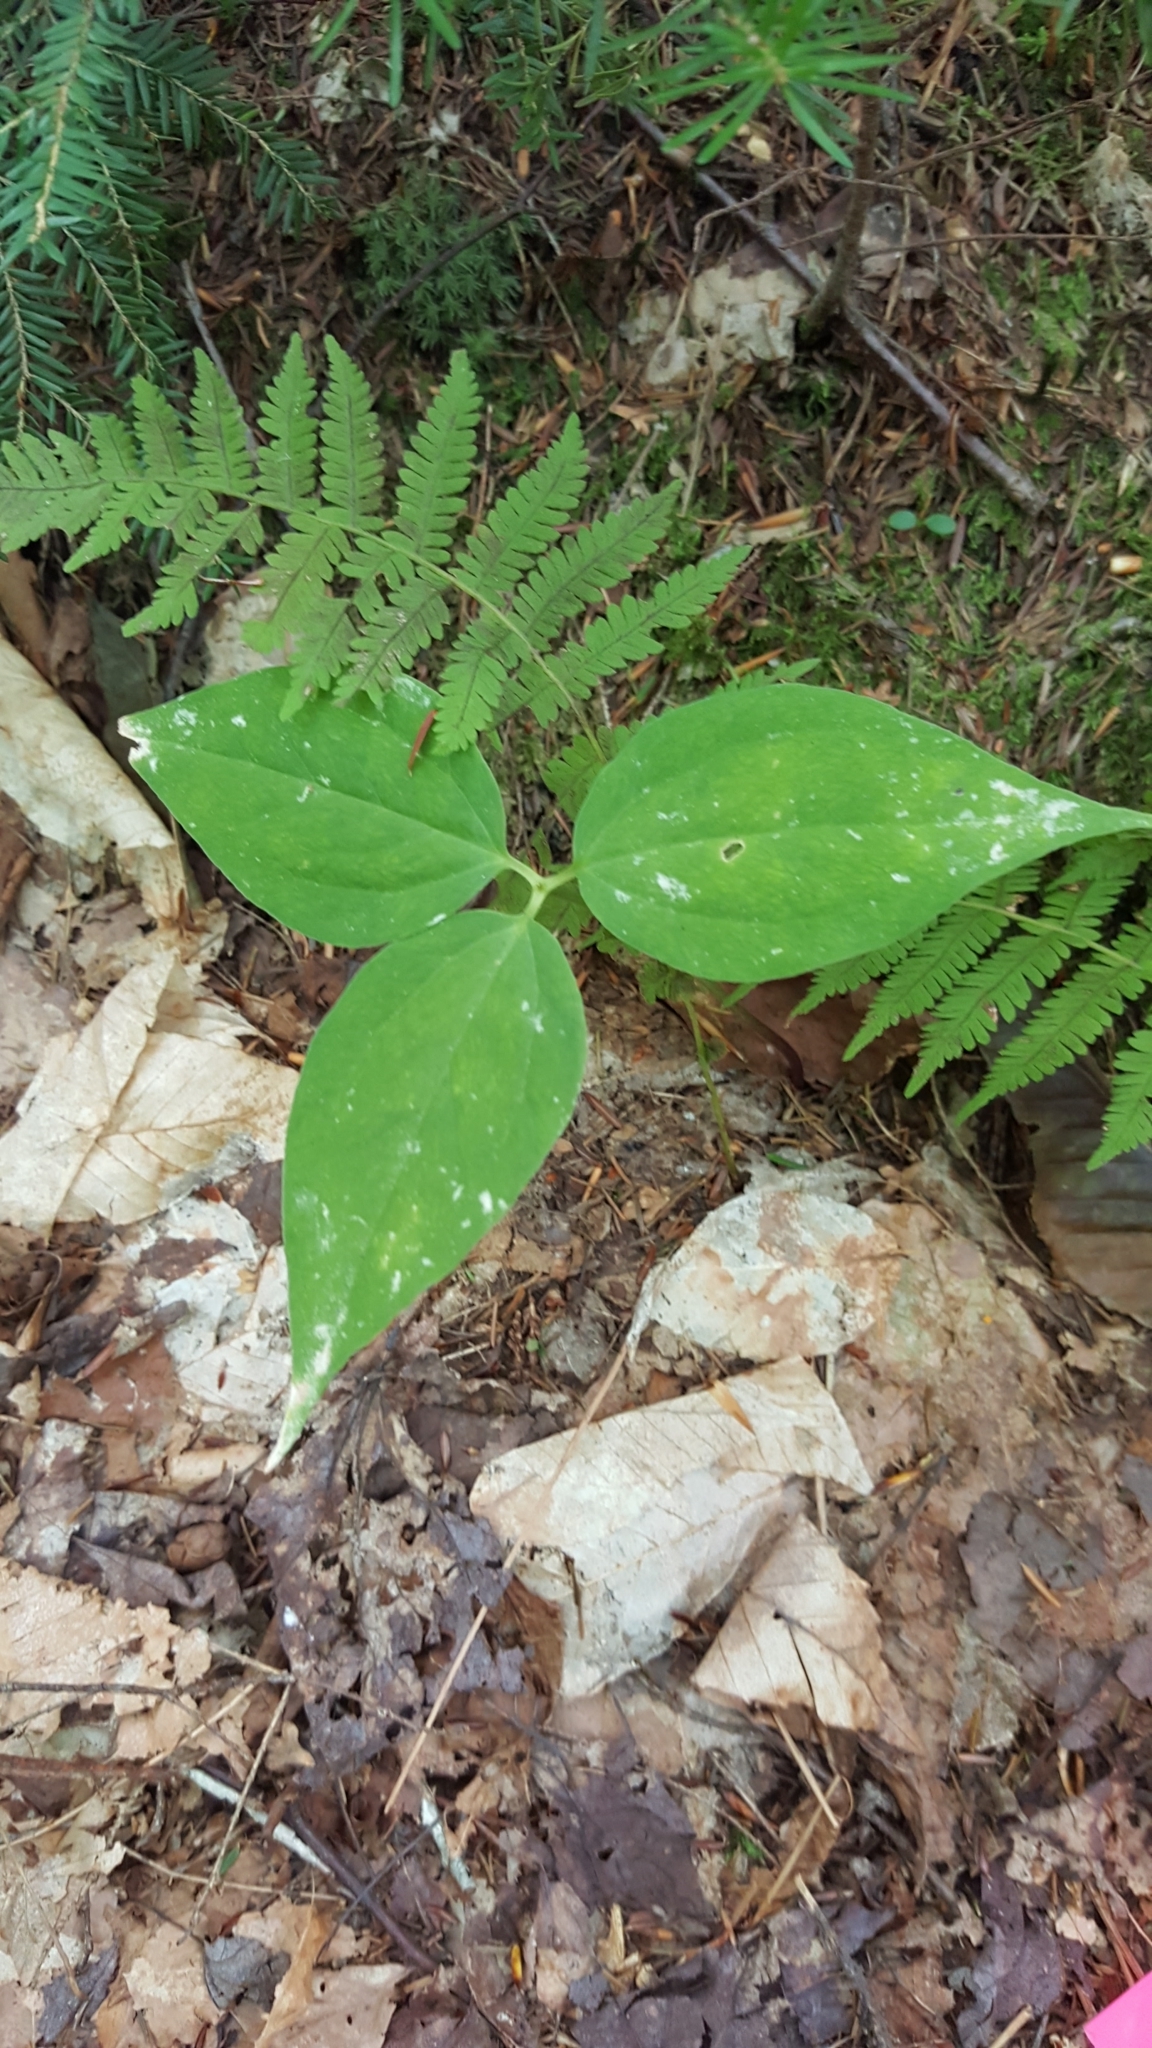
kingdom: Plantae
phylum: Tracheophyta
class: Liliopsida
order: Liliales
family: Melanthiaceae
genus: Trillium
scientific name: Trillium undulatum
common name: Paint trillium
